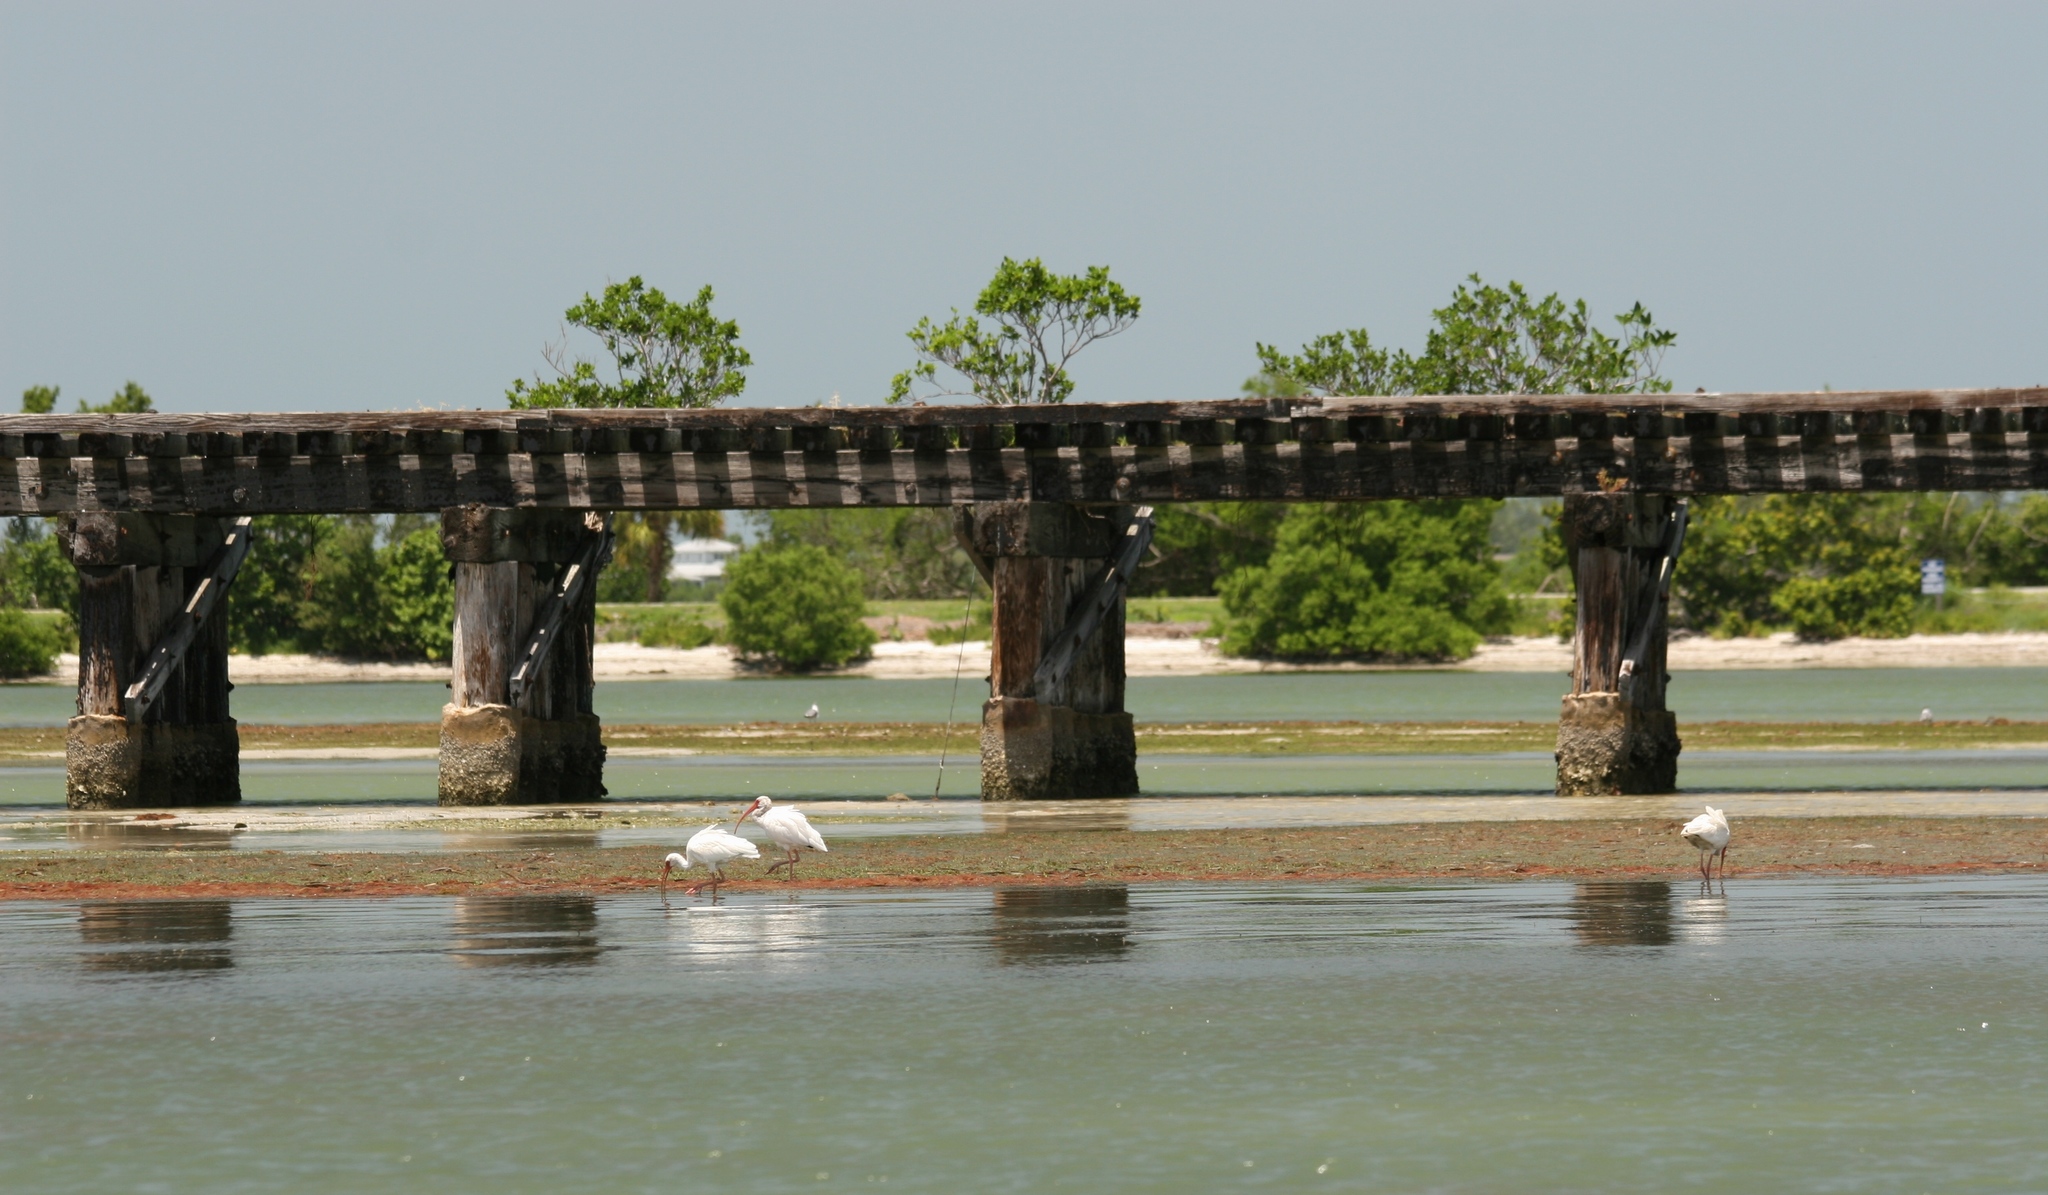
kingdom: Animalia
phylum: Chordata
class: Aves
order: Pelecaniformes
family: Threskiornithidae
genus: Eudocimus
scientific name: Eudocimus albus
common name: White ibis
